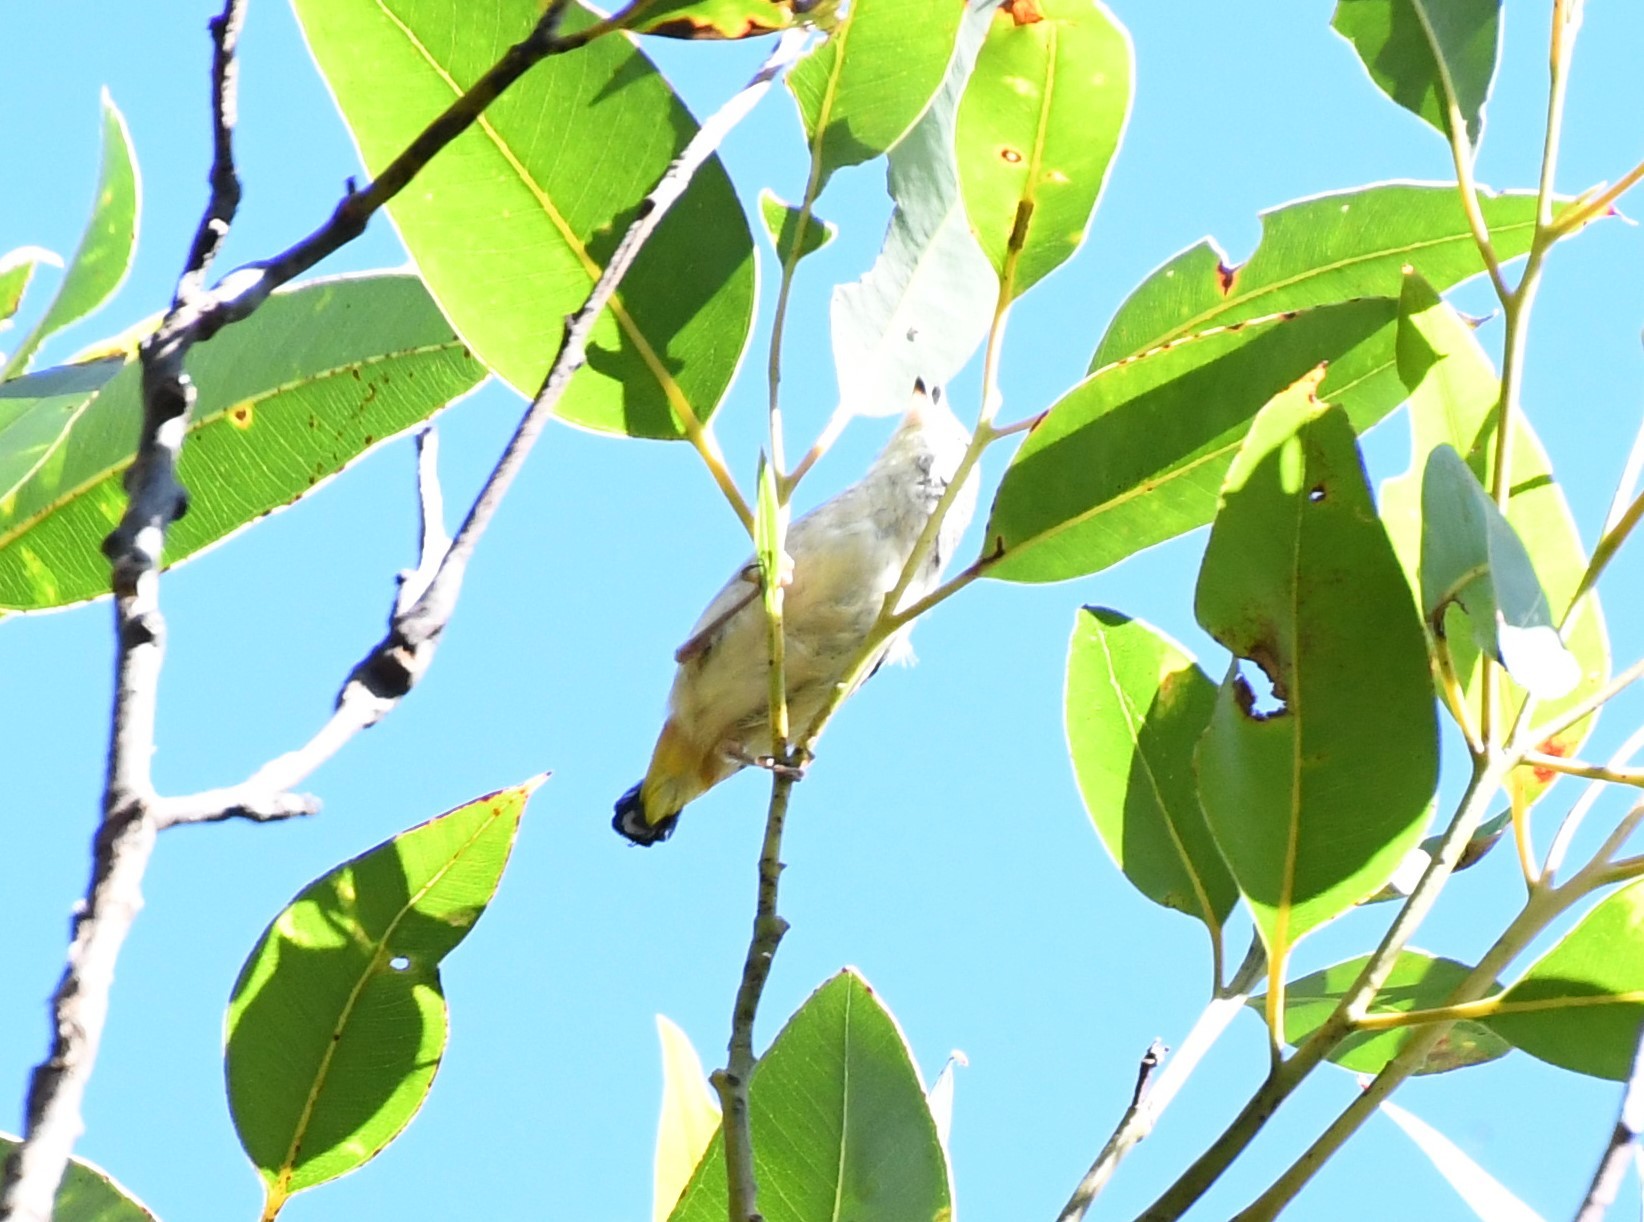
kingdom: Animalia
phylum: Chordata
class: Aves
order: Passeriformes
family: Pardalotidae
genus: Pardalotus
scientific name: Pardalotus punctatus
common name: Spotted pardalote
